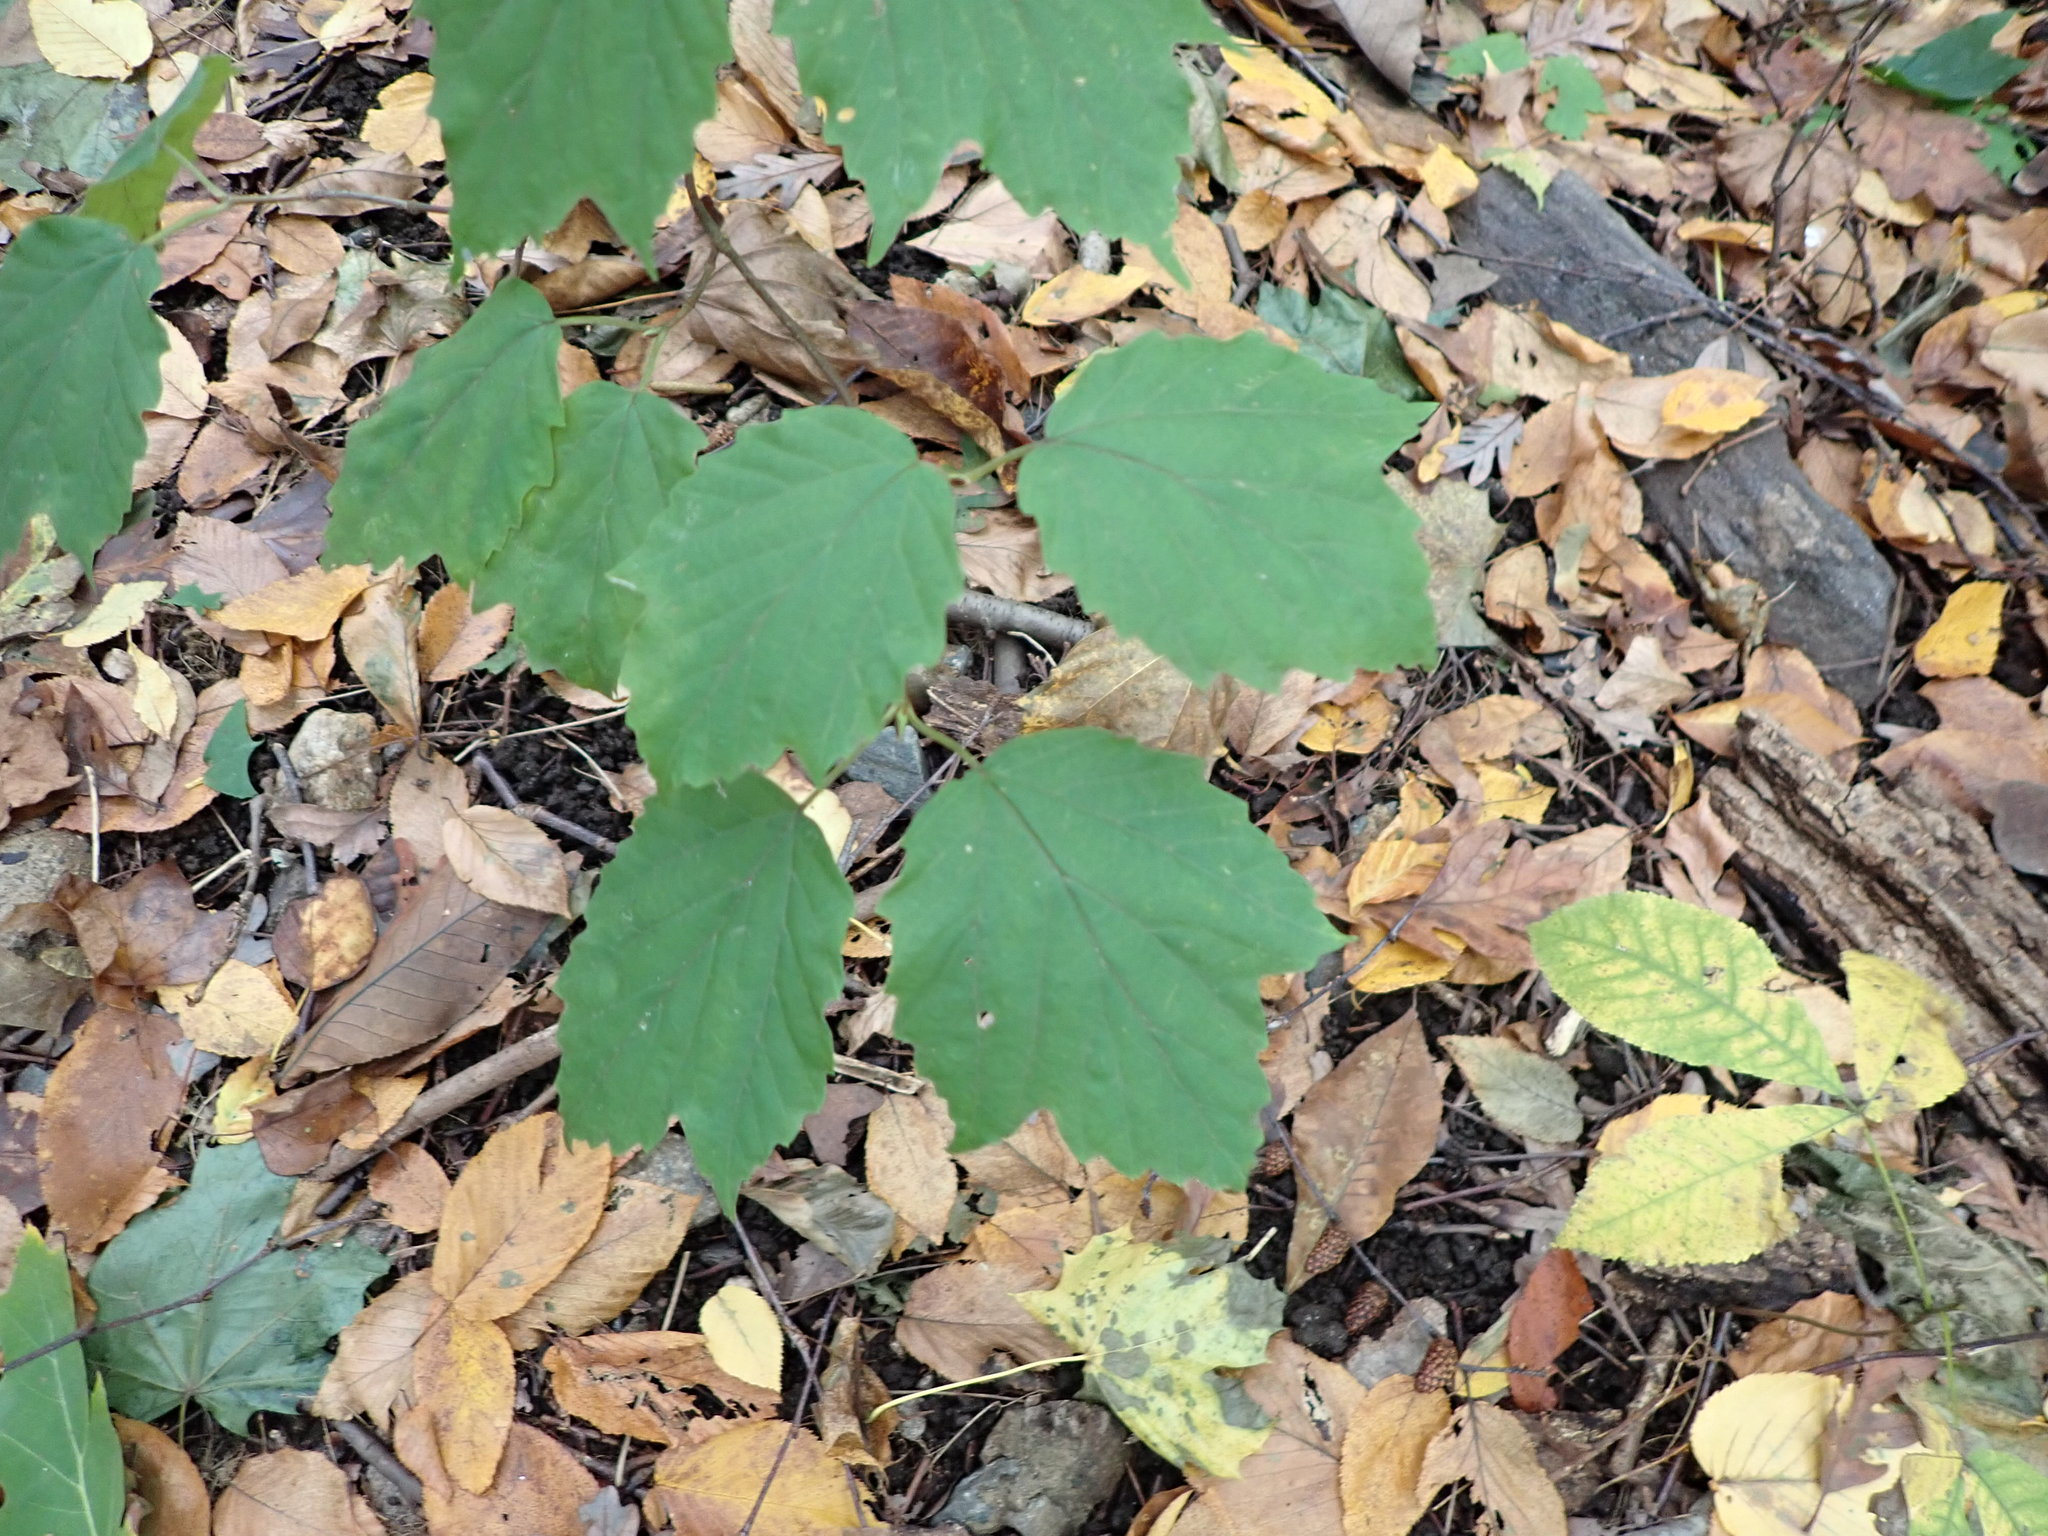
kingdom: Plantae
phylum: Tracheophyta
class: Magnoliopsida
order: Dipsacales
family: Viburnaceae
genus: Viburnum
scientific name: Viburnum acerifolium
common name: Dockmackie
